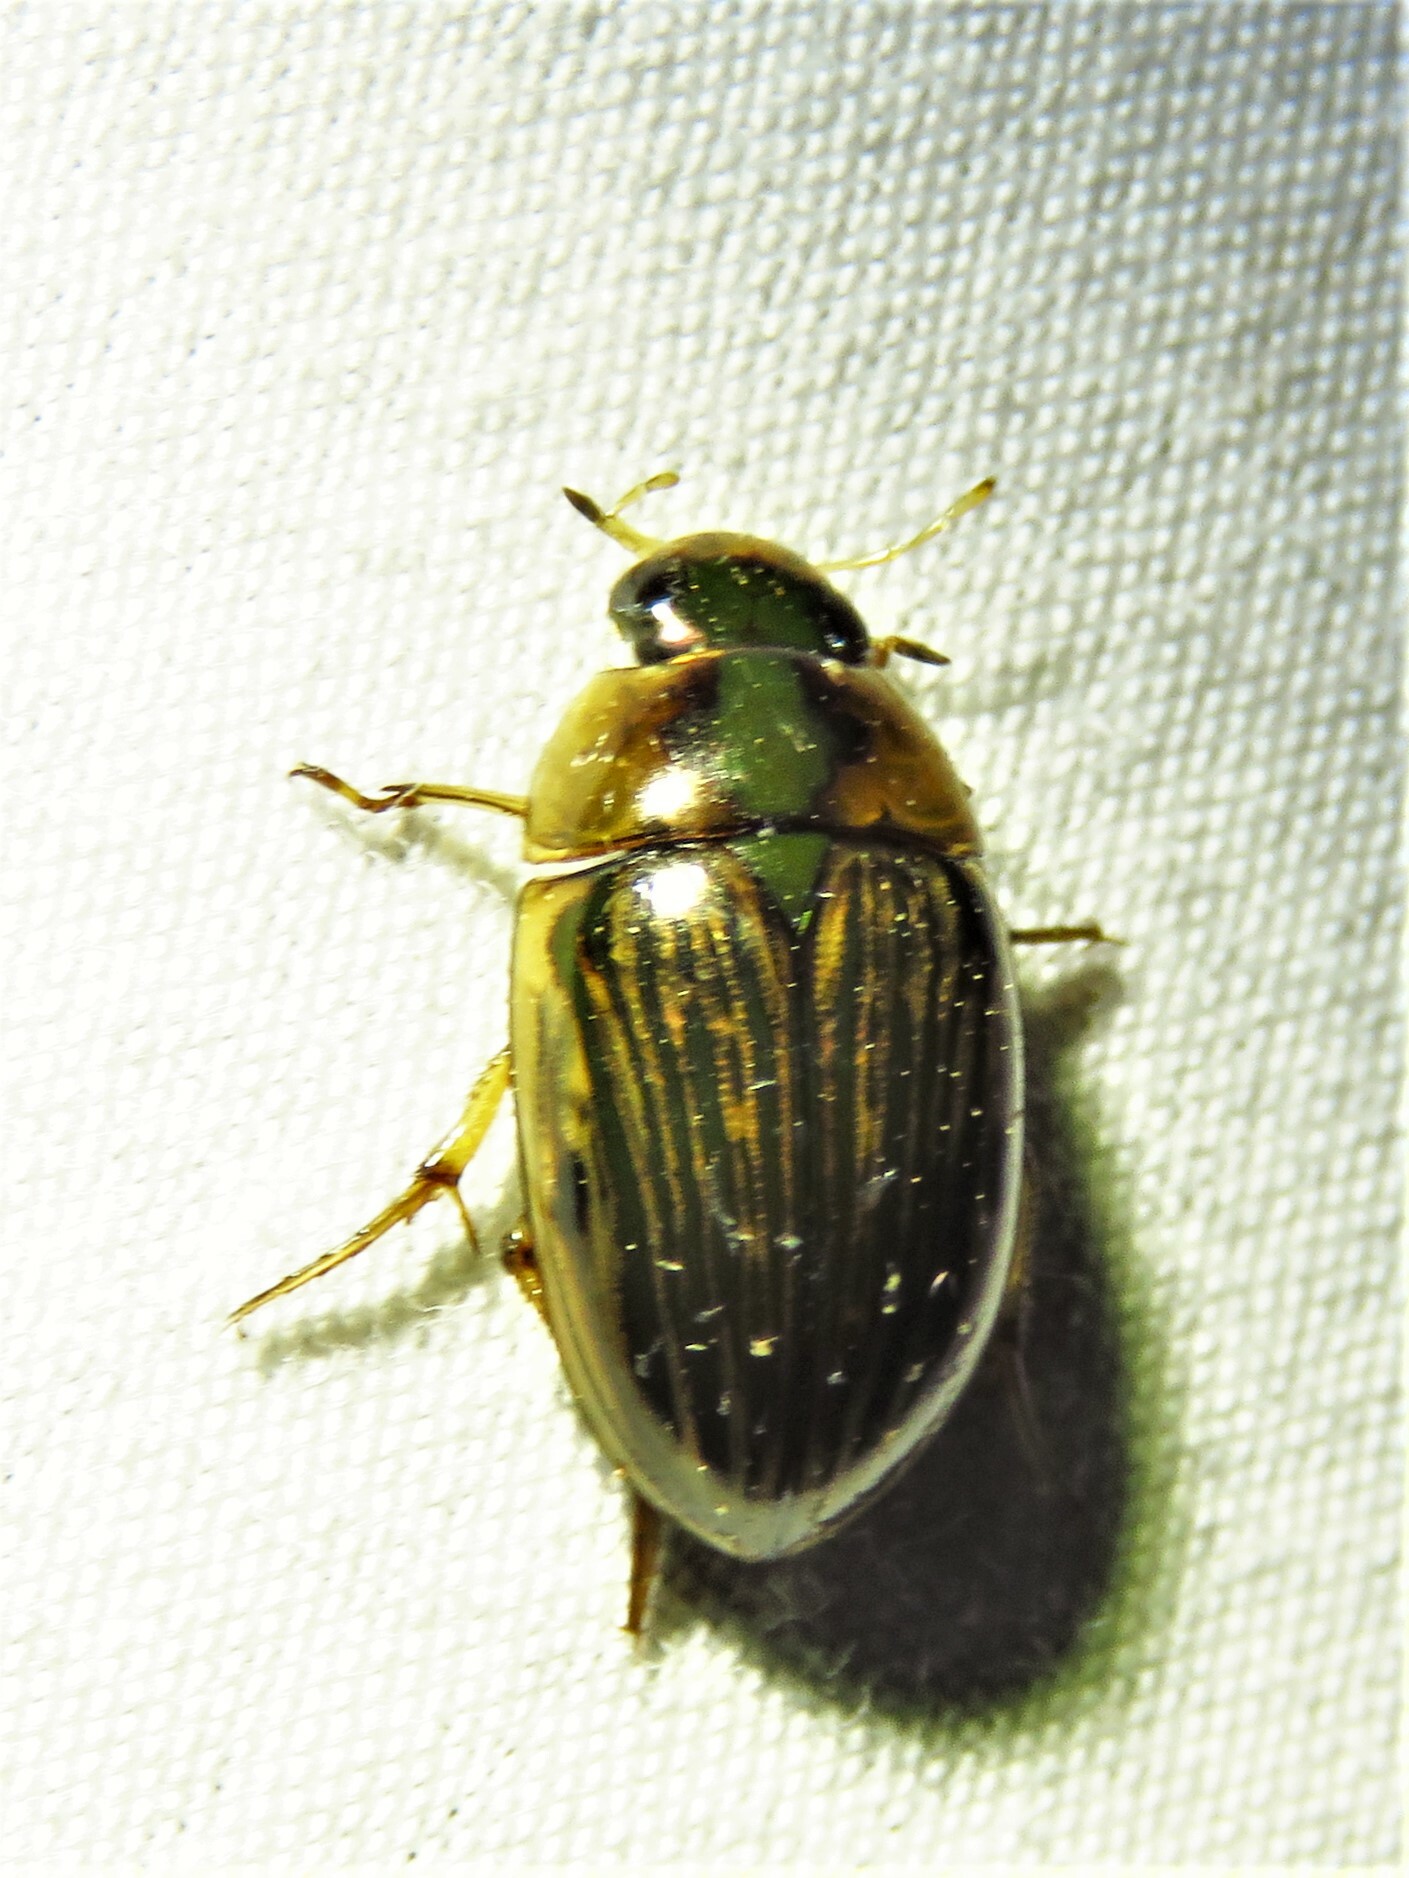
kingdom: Animalia
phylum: Arthropoda
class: Insecta
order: Coleoptera
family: Hydrophilidae
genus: Tropisternus
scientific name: Tropisternus collaris
